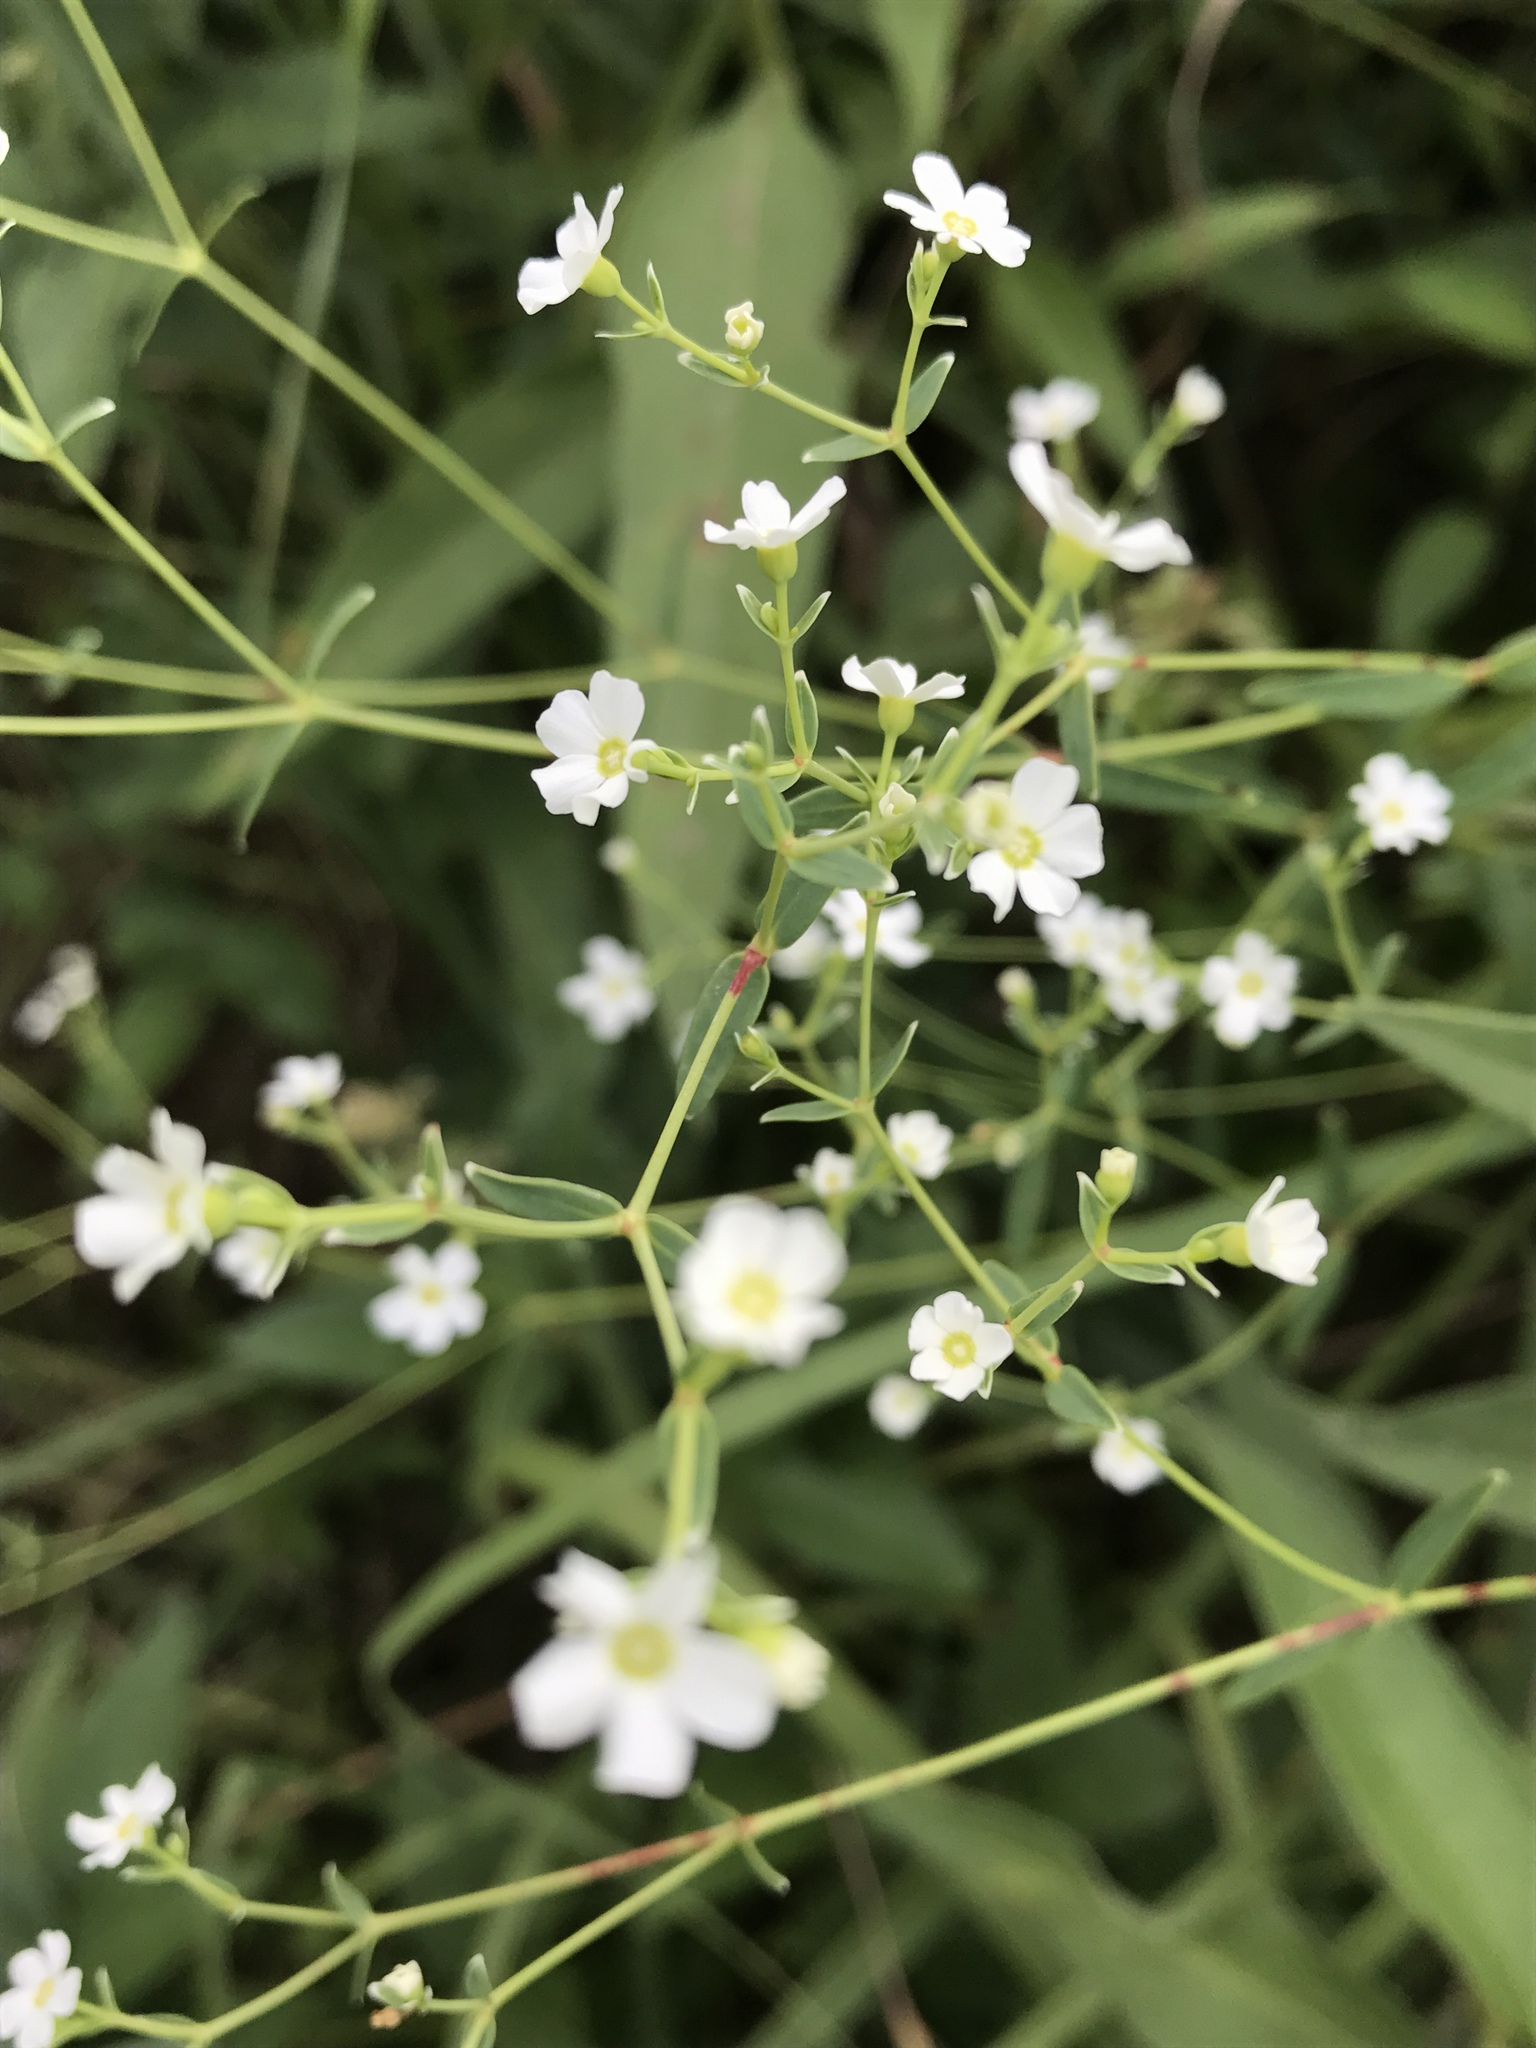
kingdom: Plantae
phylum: Tracheophyta
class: Magnoliopsida
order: Malpighiales
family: Euphorbiaceae
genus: Euphorbia
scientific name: Euphorbia corollata
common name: Flowering spurge
